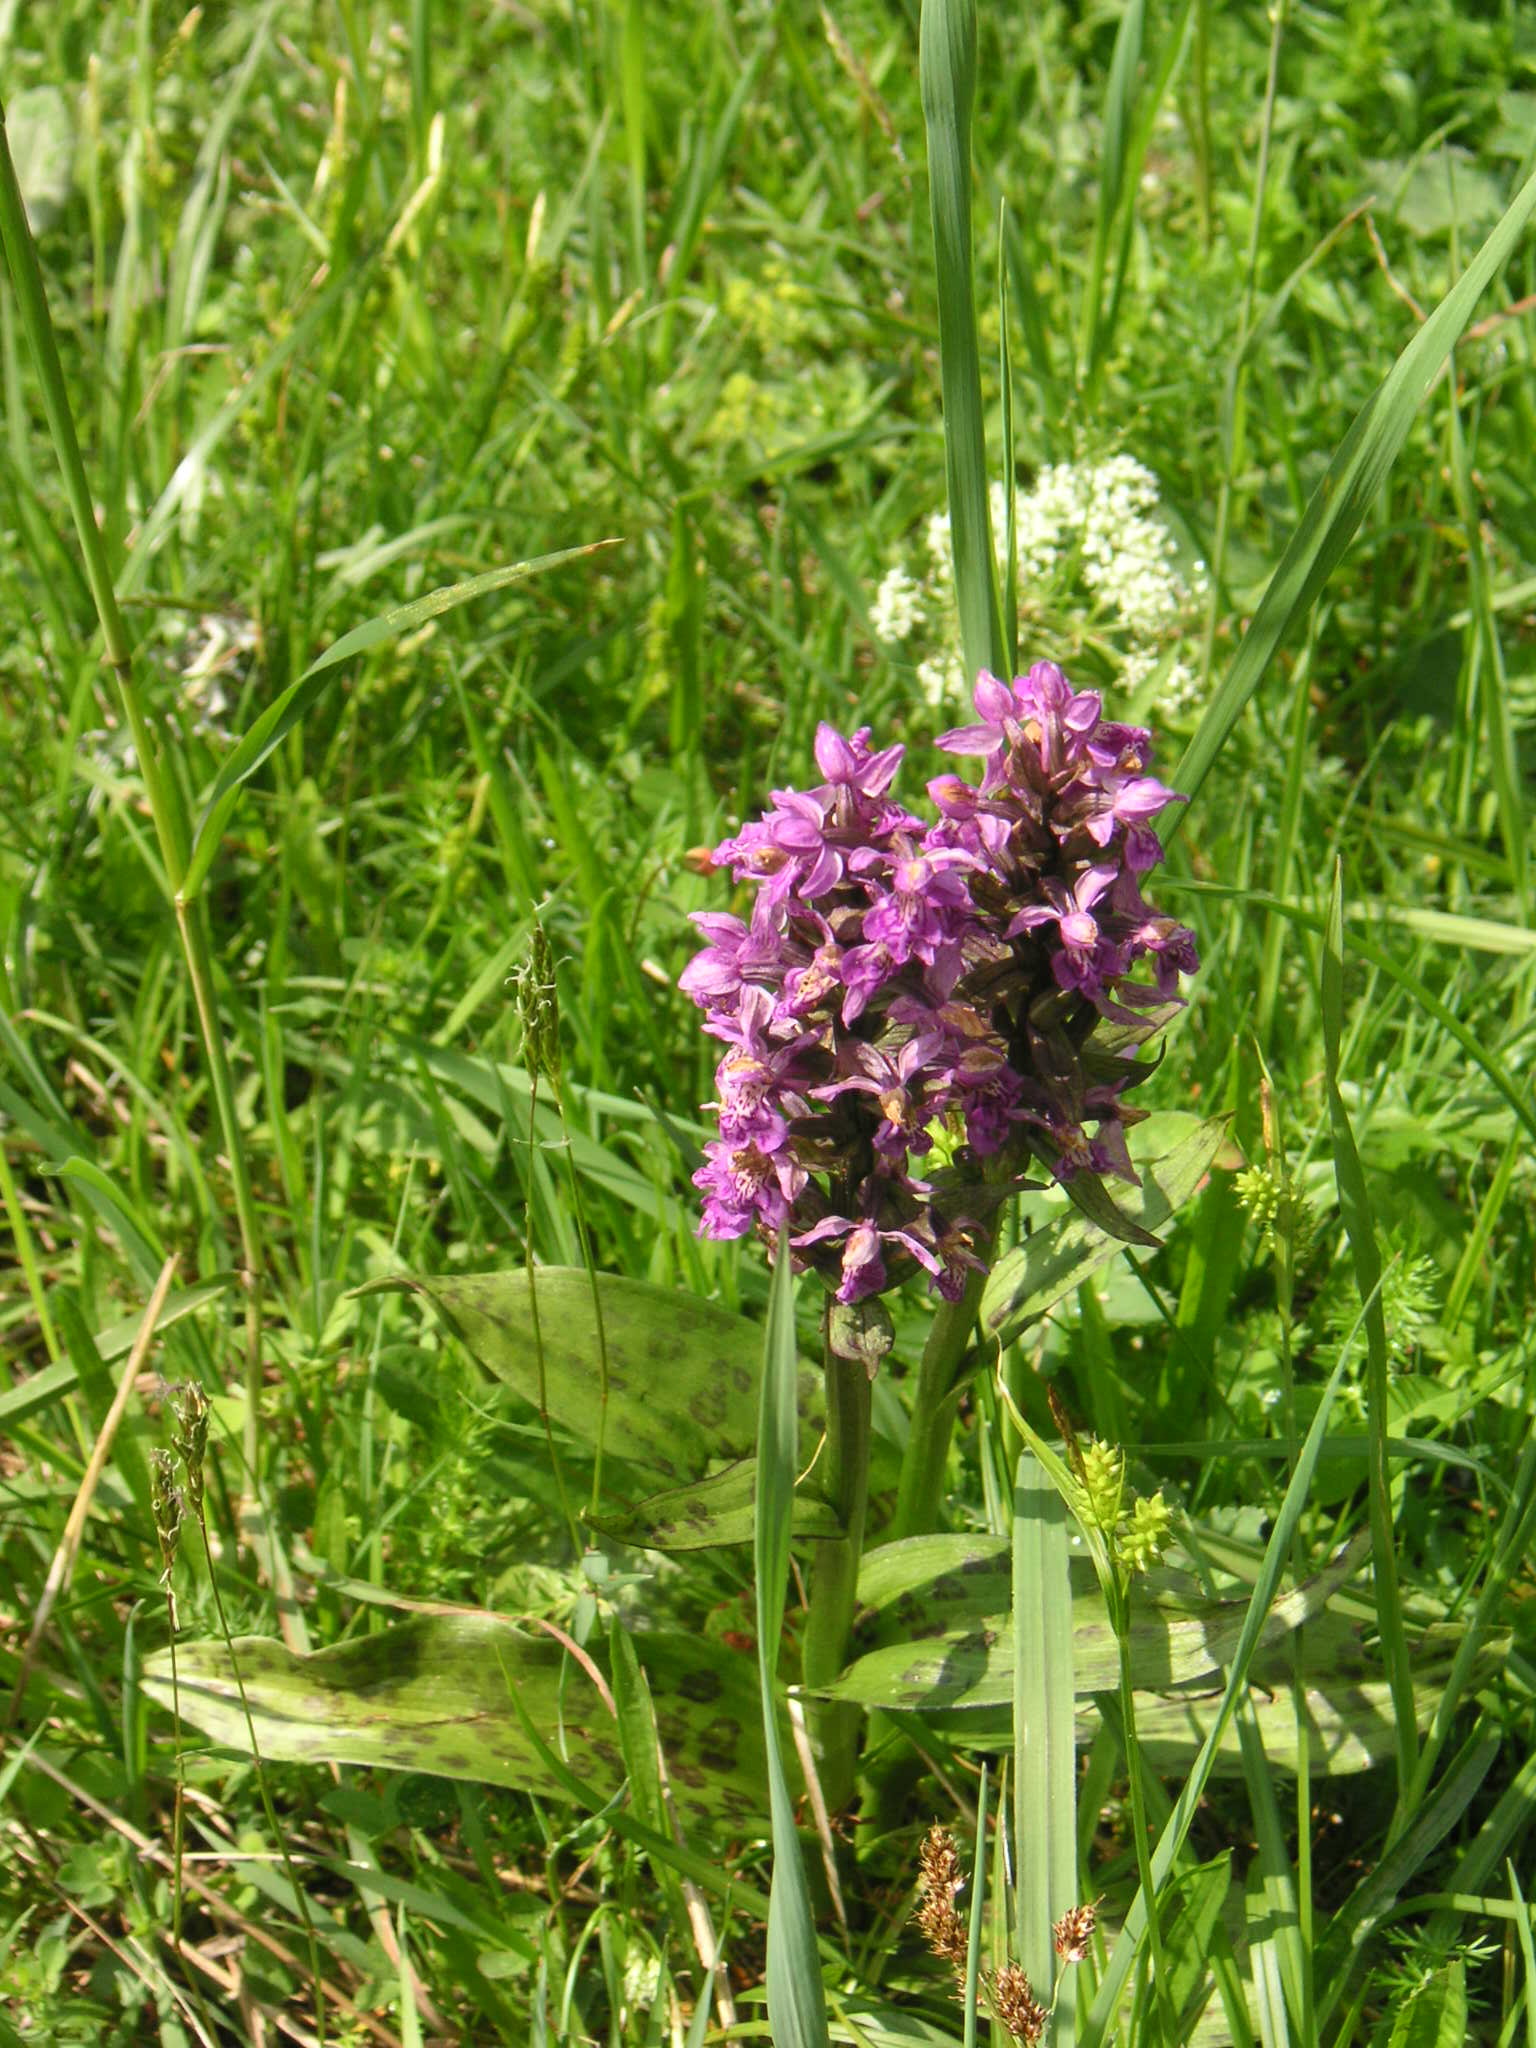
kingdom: Plantae
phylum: Tracheophyta
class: Liliopsida
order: Asparagales
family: Orchidaceae
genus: Dactylorhiza
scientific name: Dactylorhiza majalis
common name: Marsh orchid
